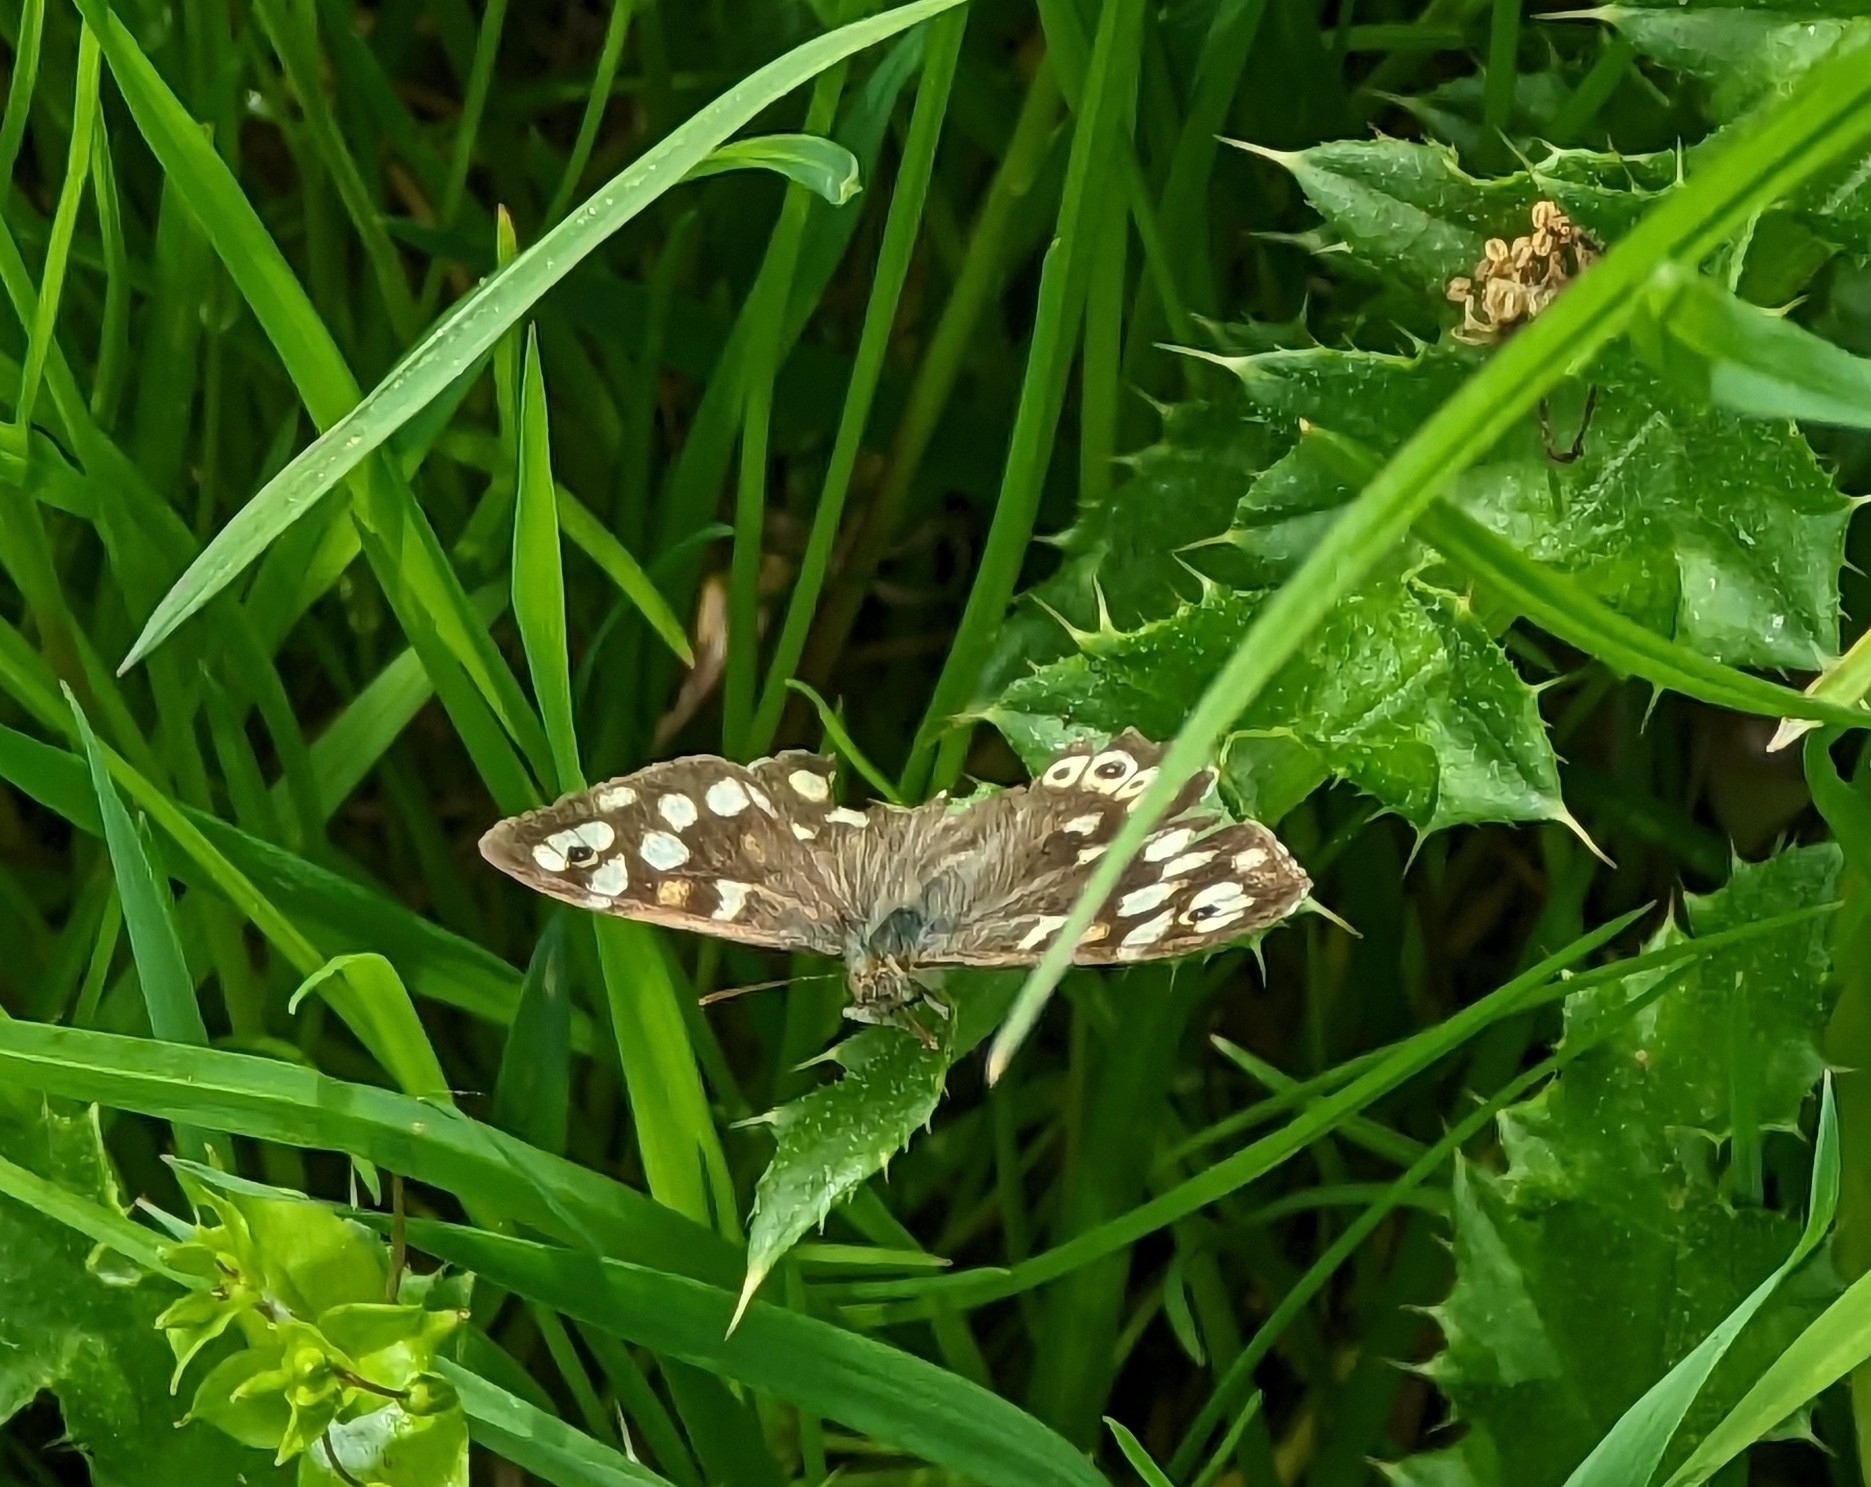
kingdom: Animalia
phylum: Arthropoda
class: Insecta
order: Lepidoptera
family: Nymphalidae
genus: Pararge
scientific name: Pararge aegeria
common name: Speckled wood
